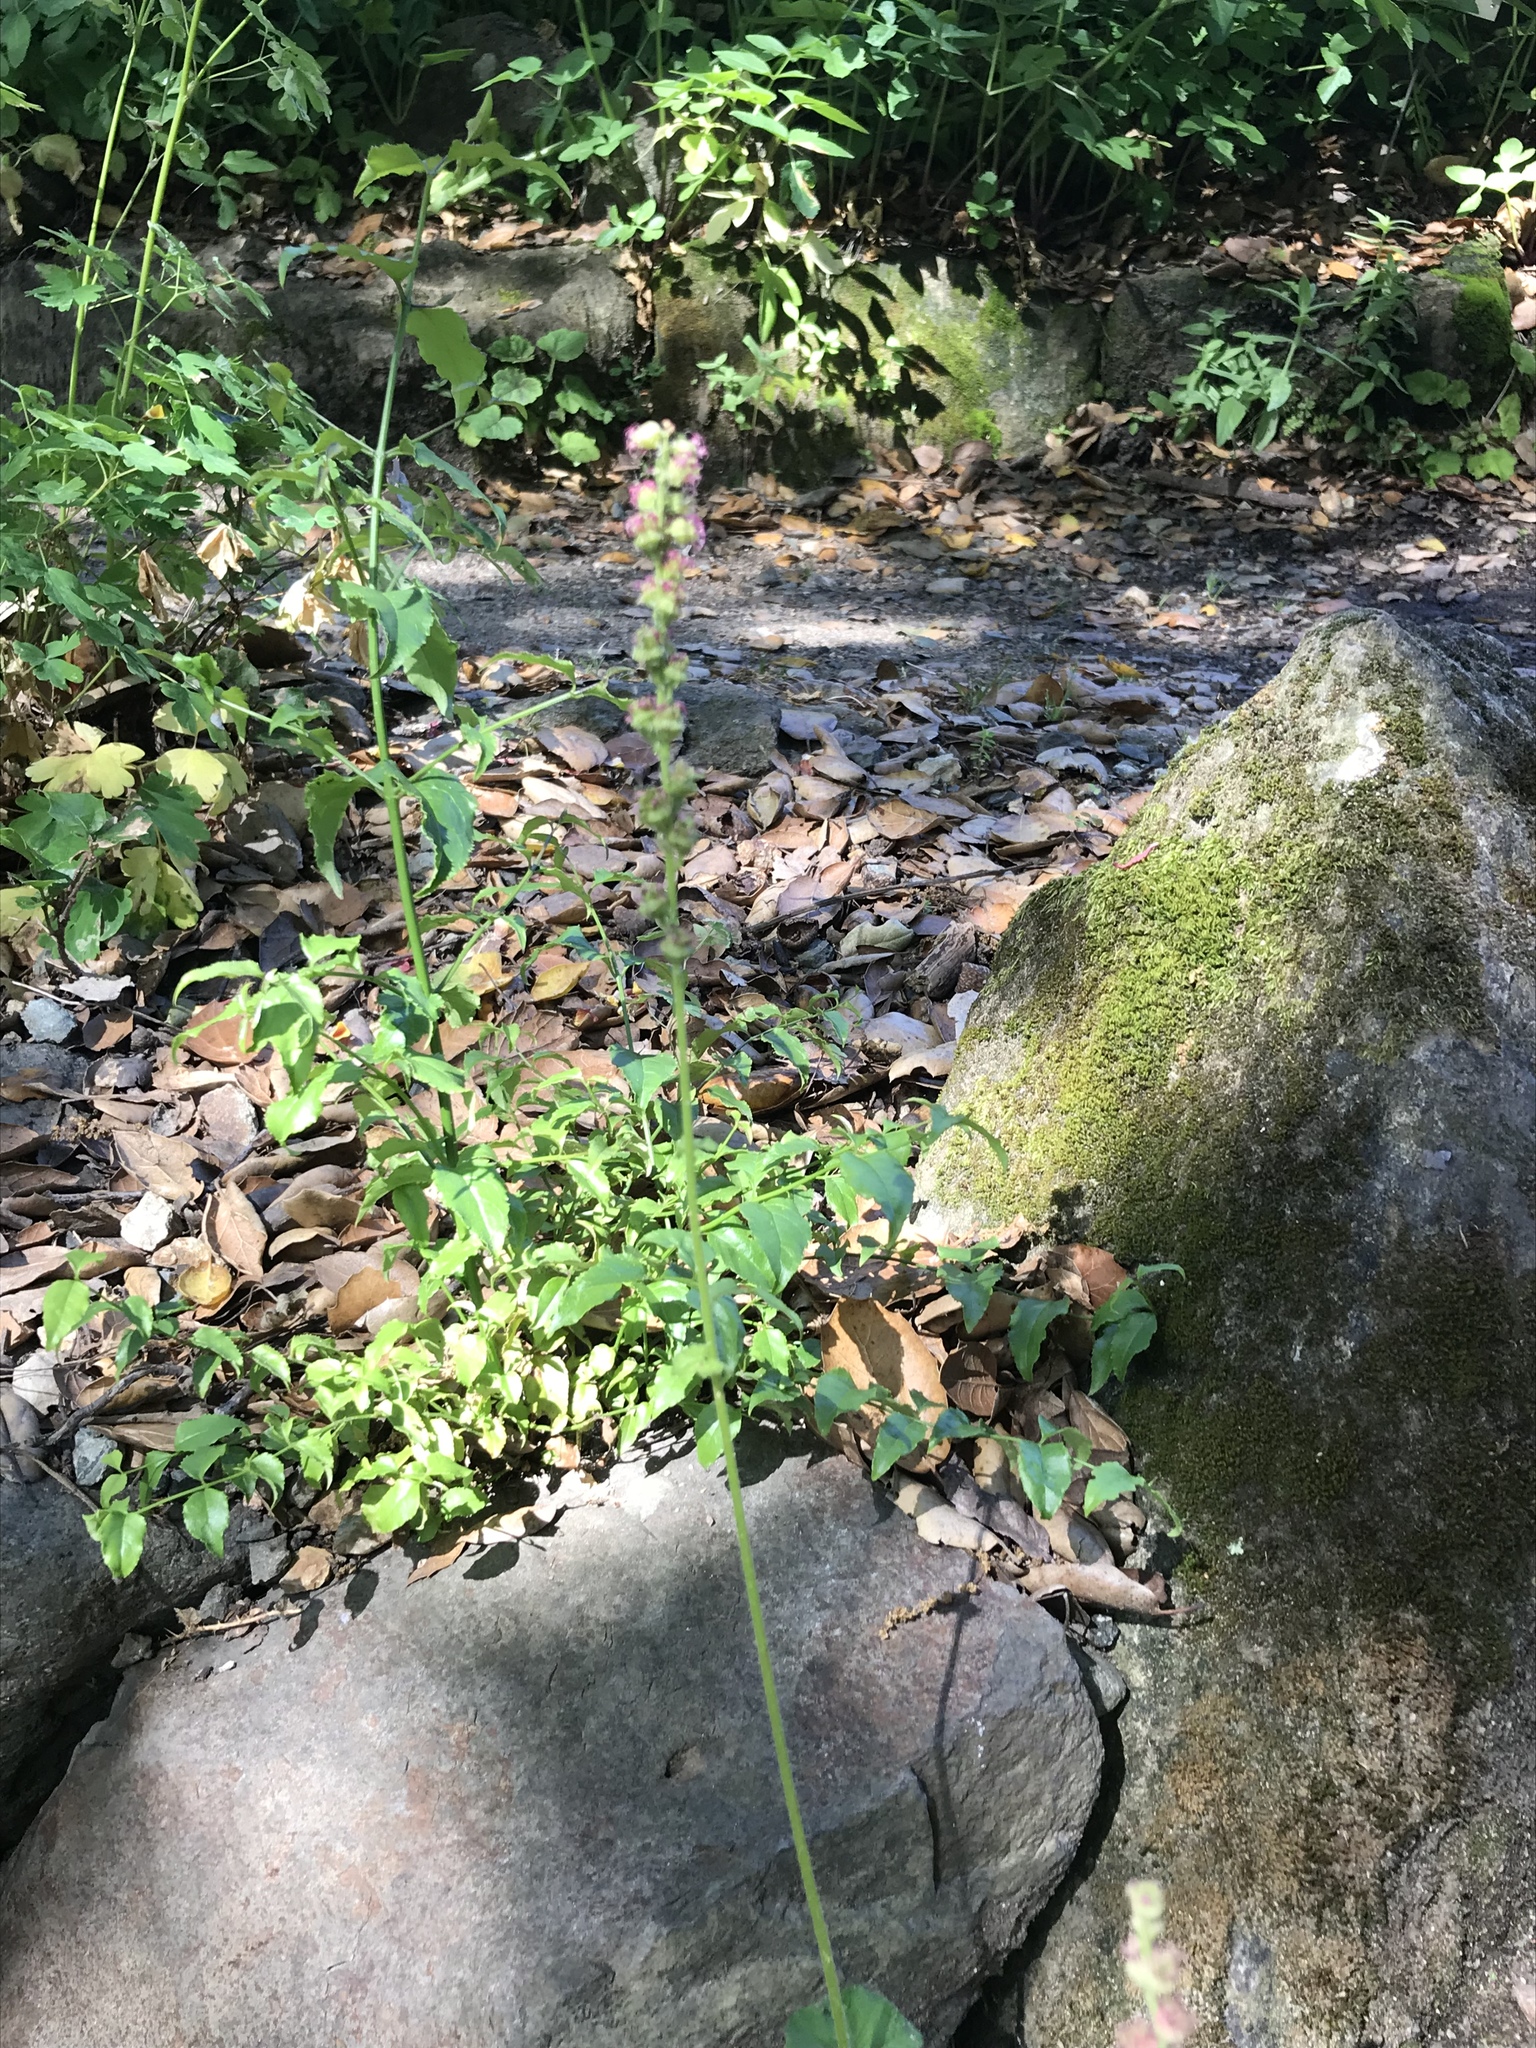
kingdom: Plantae
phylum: Tracheophyta
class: Magnoliopsida
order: Saxifragales
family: Saxifragaceae
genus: Tellima
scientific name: Tellima grandiflora
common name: Fringecups
